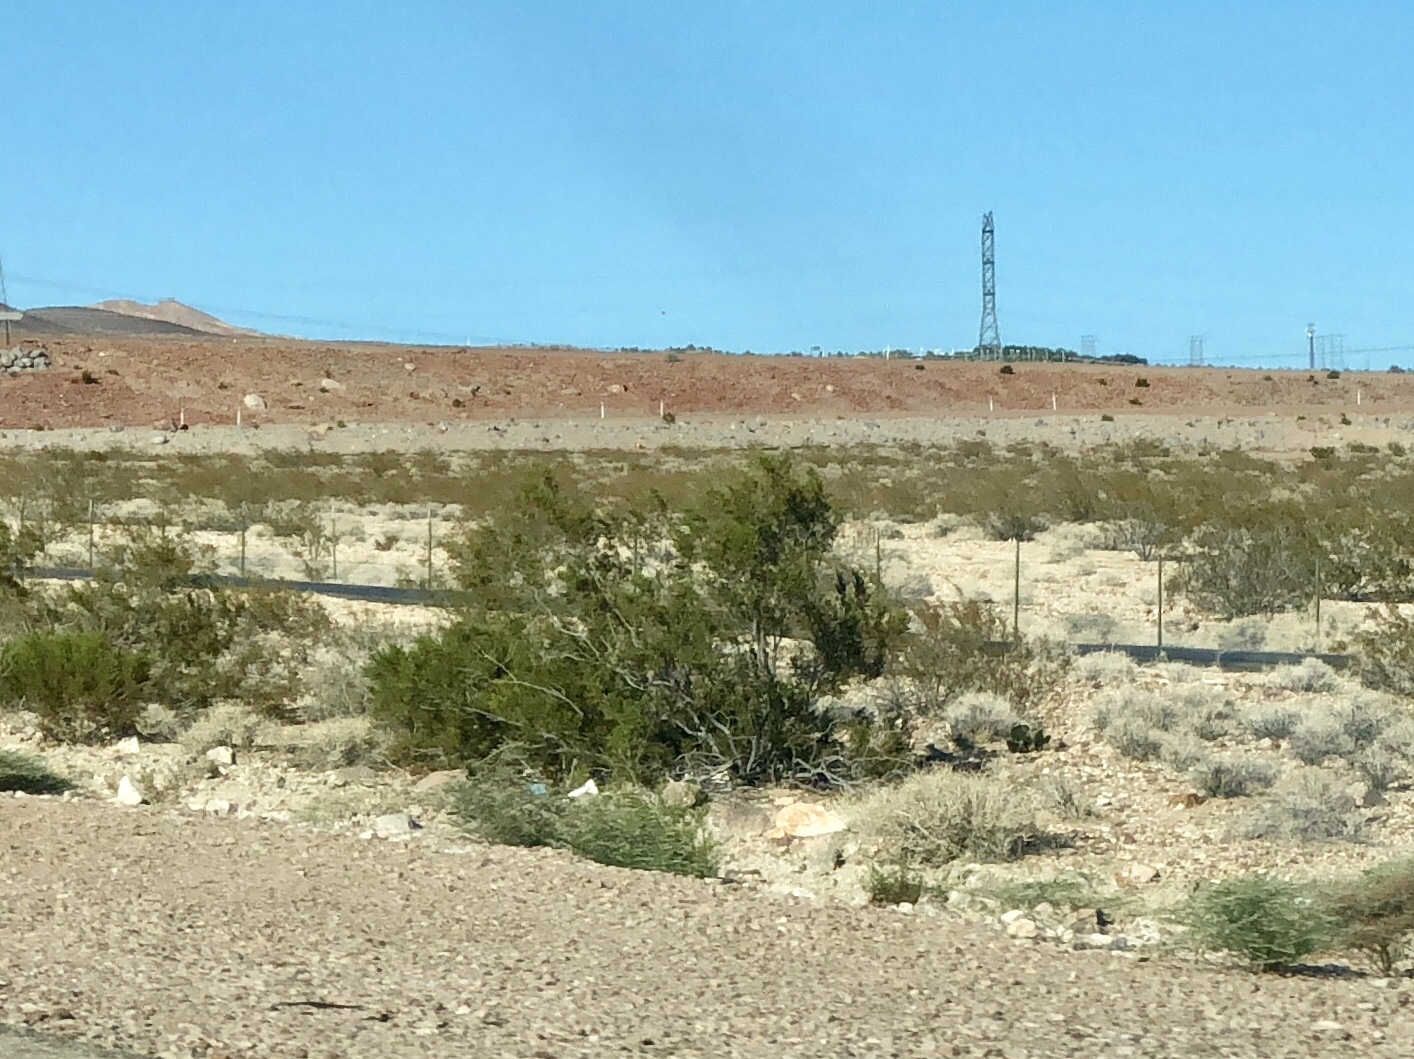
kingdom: Plantae
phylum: Tracheophyta
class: Magnoliopsida
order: Zygophyllales
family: Zygophyllaceae
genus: Larrea
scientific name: Larrea tridentata
